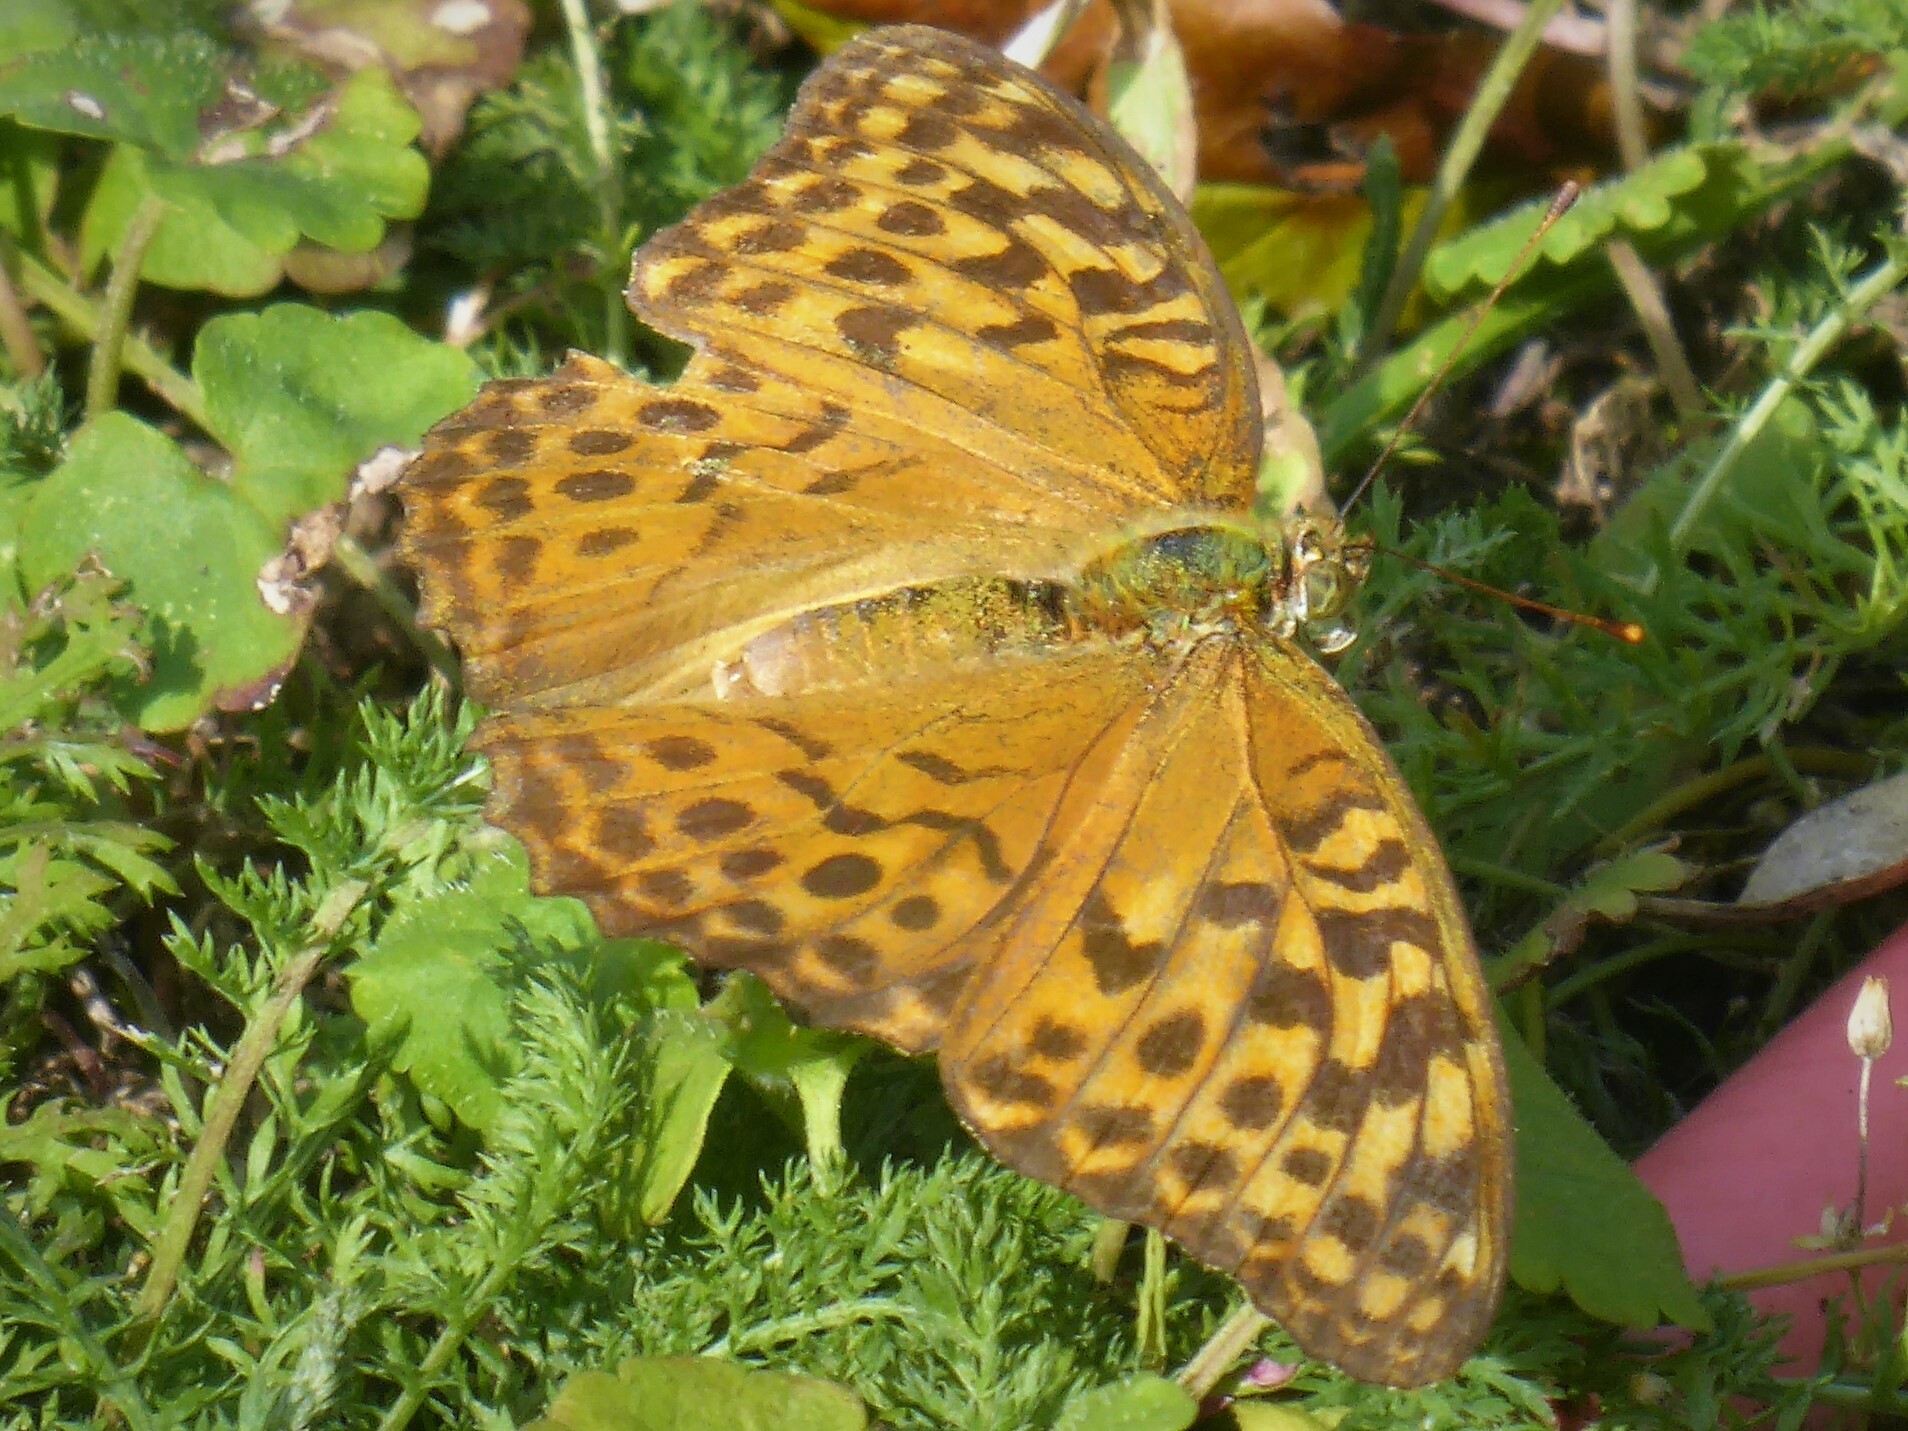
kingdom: Animalia
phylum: Arthropoda
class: Insecta
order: Lepidoptera
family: Nymphalidae
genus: Argynnis
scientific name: Argynnis paphia
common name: Silver-washed fritillary
